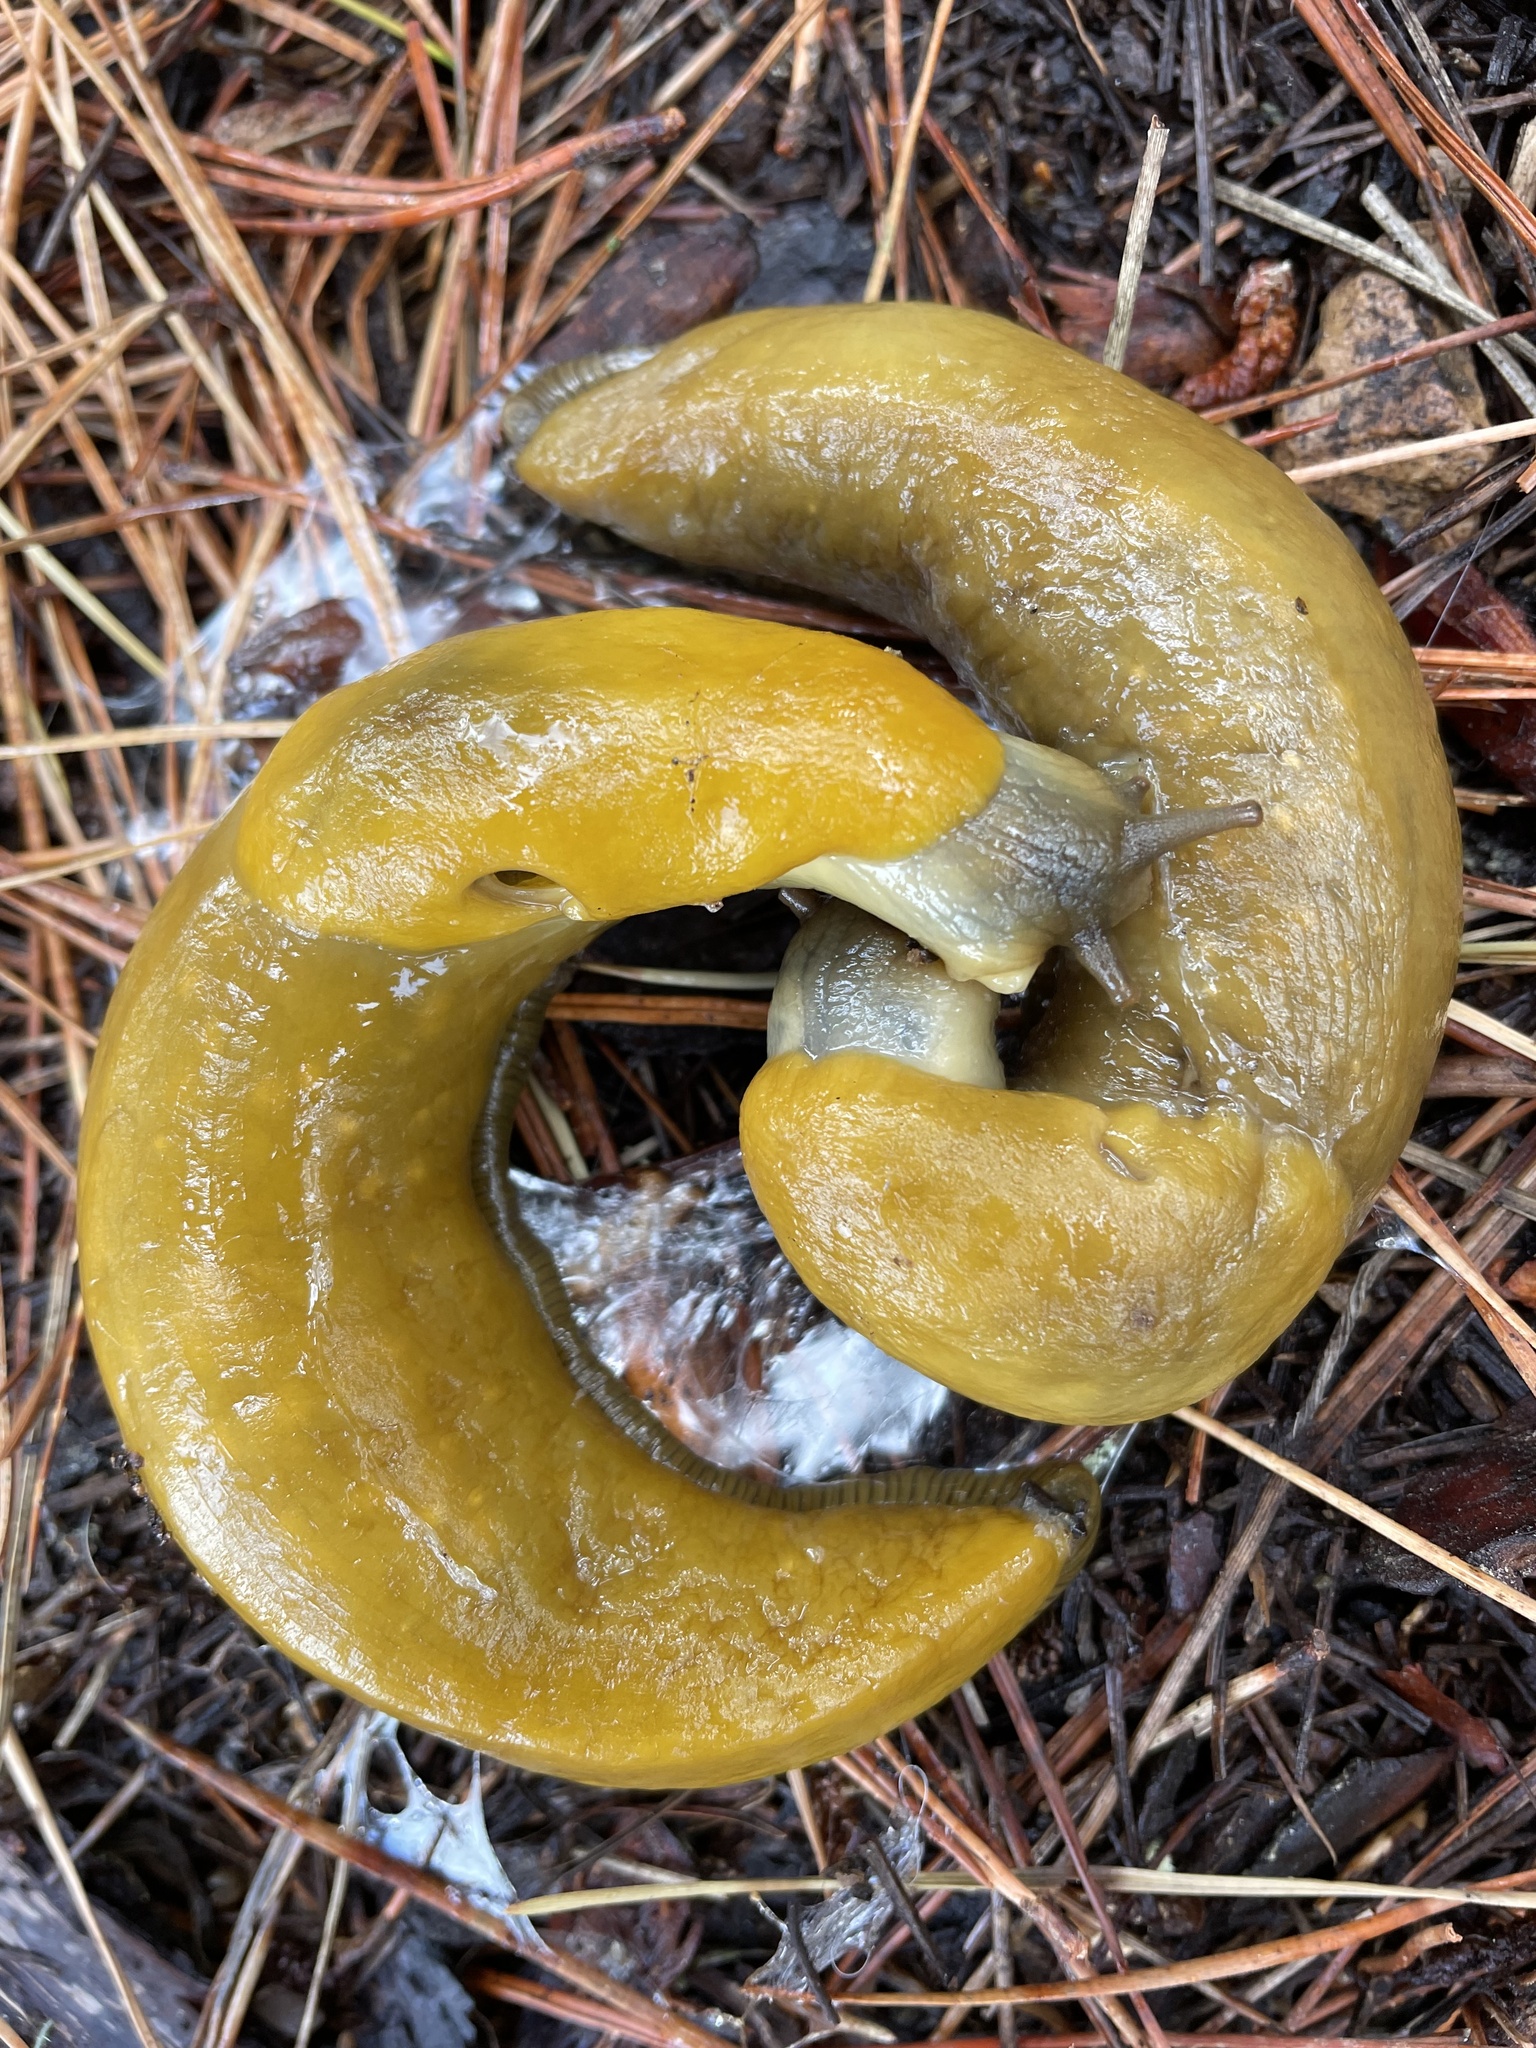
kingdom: Animalia
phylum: Mollusca
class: Gastropoda
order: Stylommatophora
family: Ariolimacidae
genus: Ariolimax
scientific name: Ariolimax
